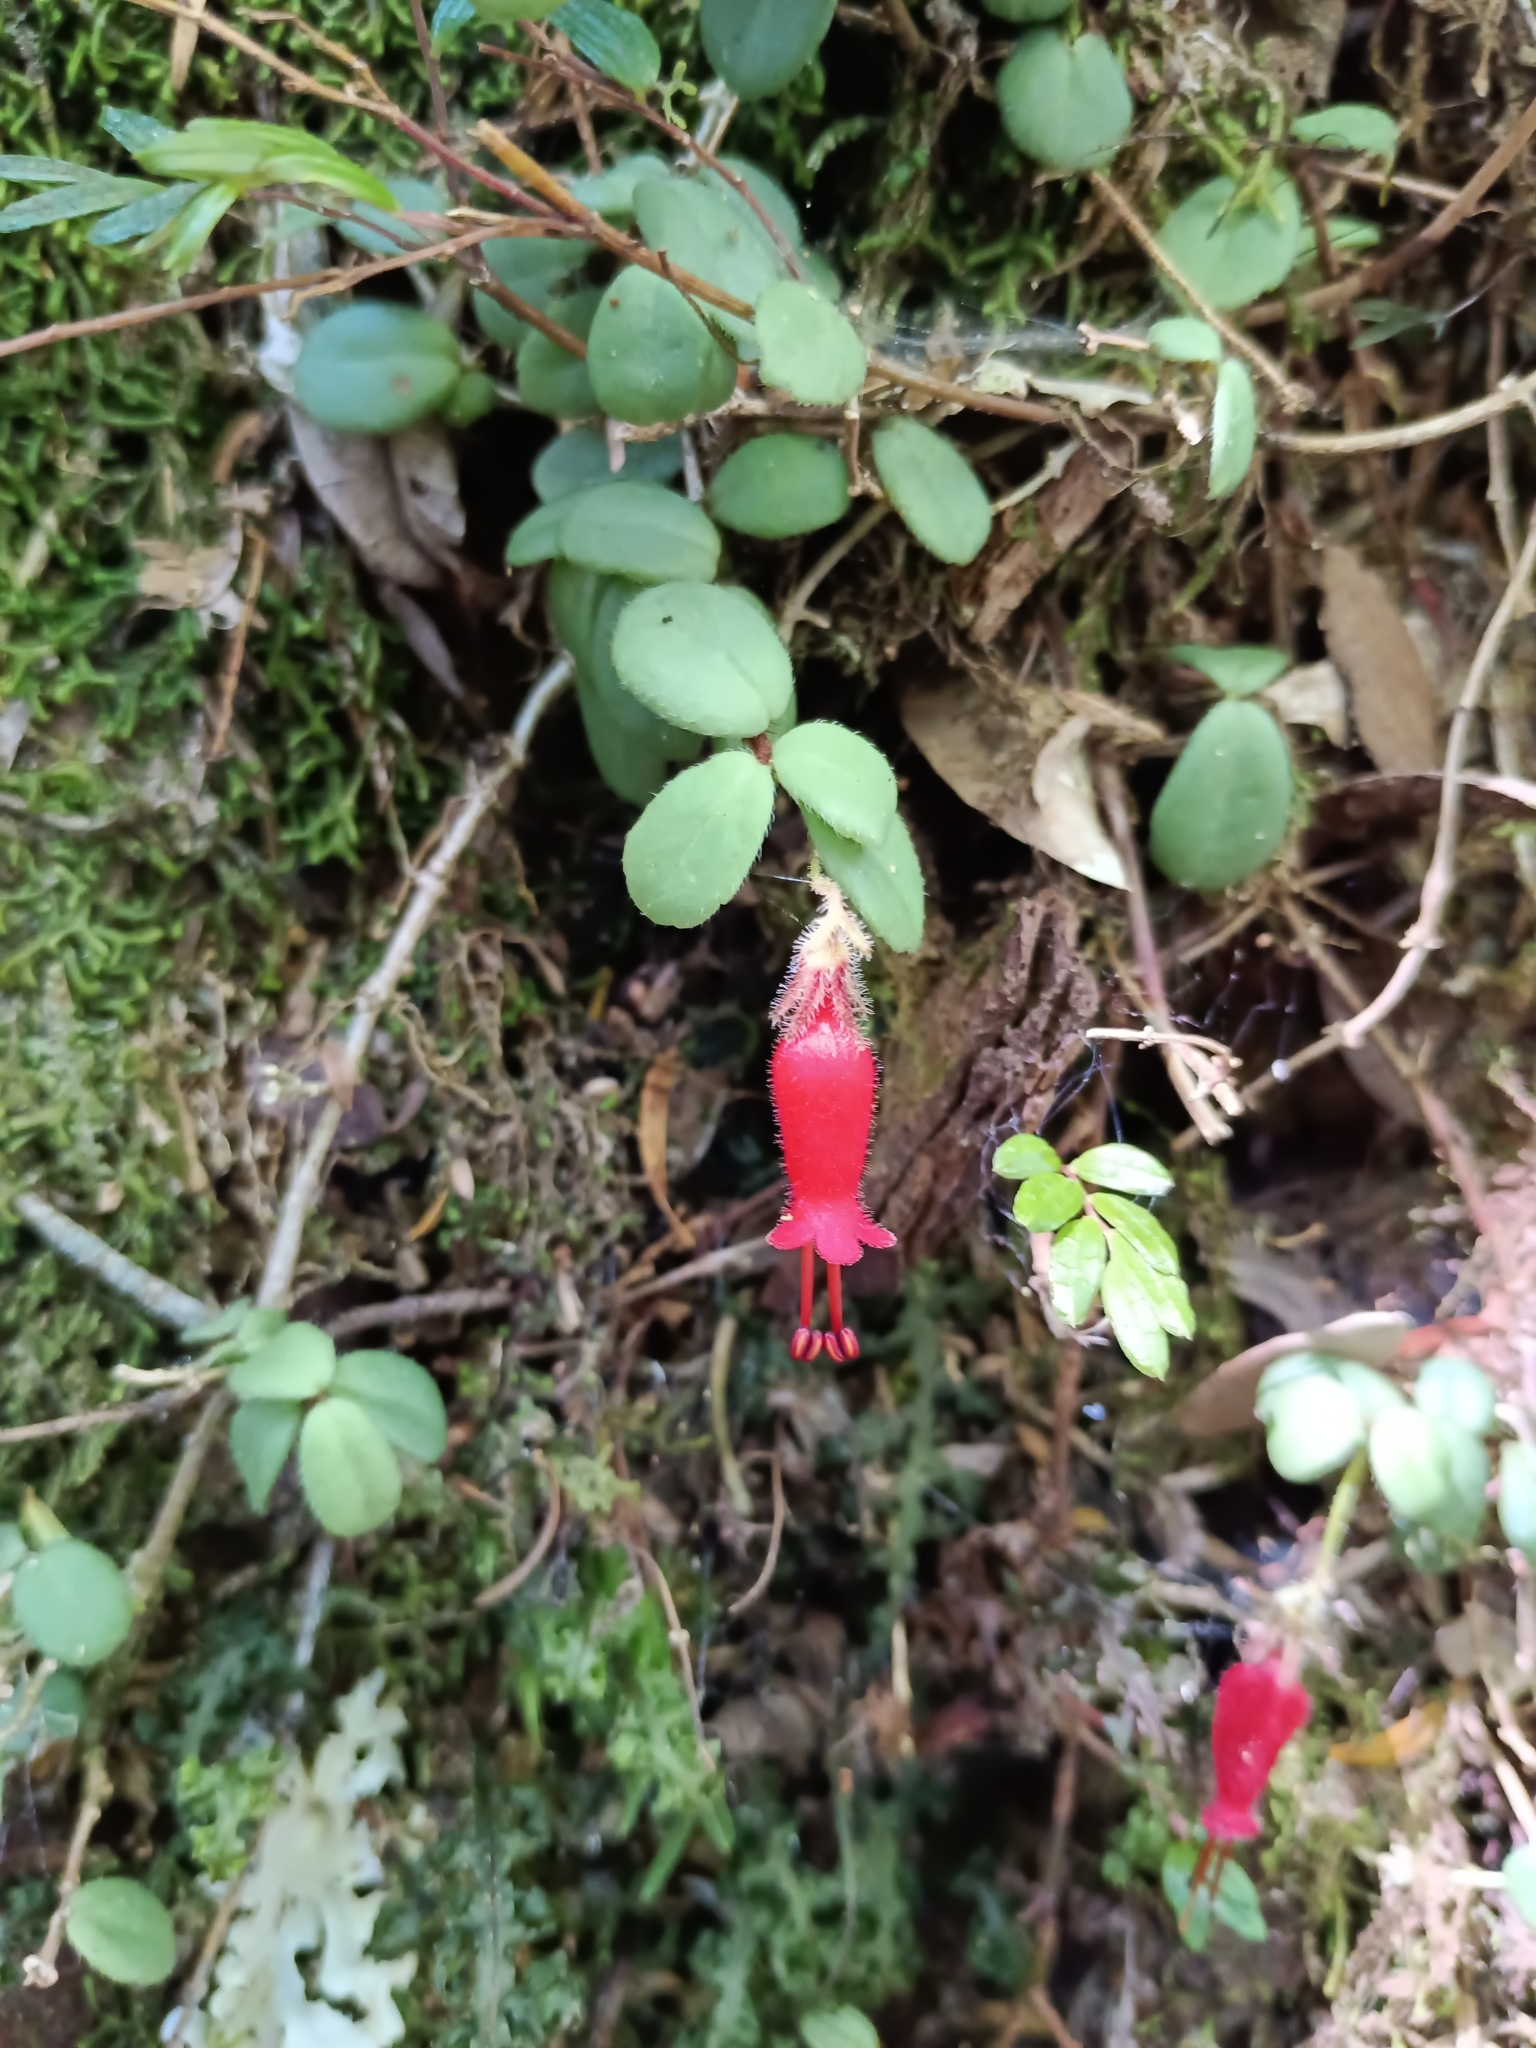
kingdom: Plantae
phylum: Tracheophyta
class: Magnoliopsida
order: Lamiales
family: Gesneriaceae
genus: Sarmienta
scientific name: Sarmienta scandens
